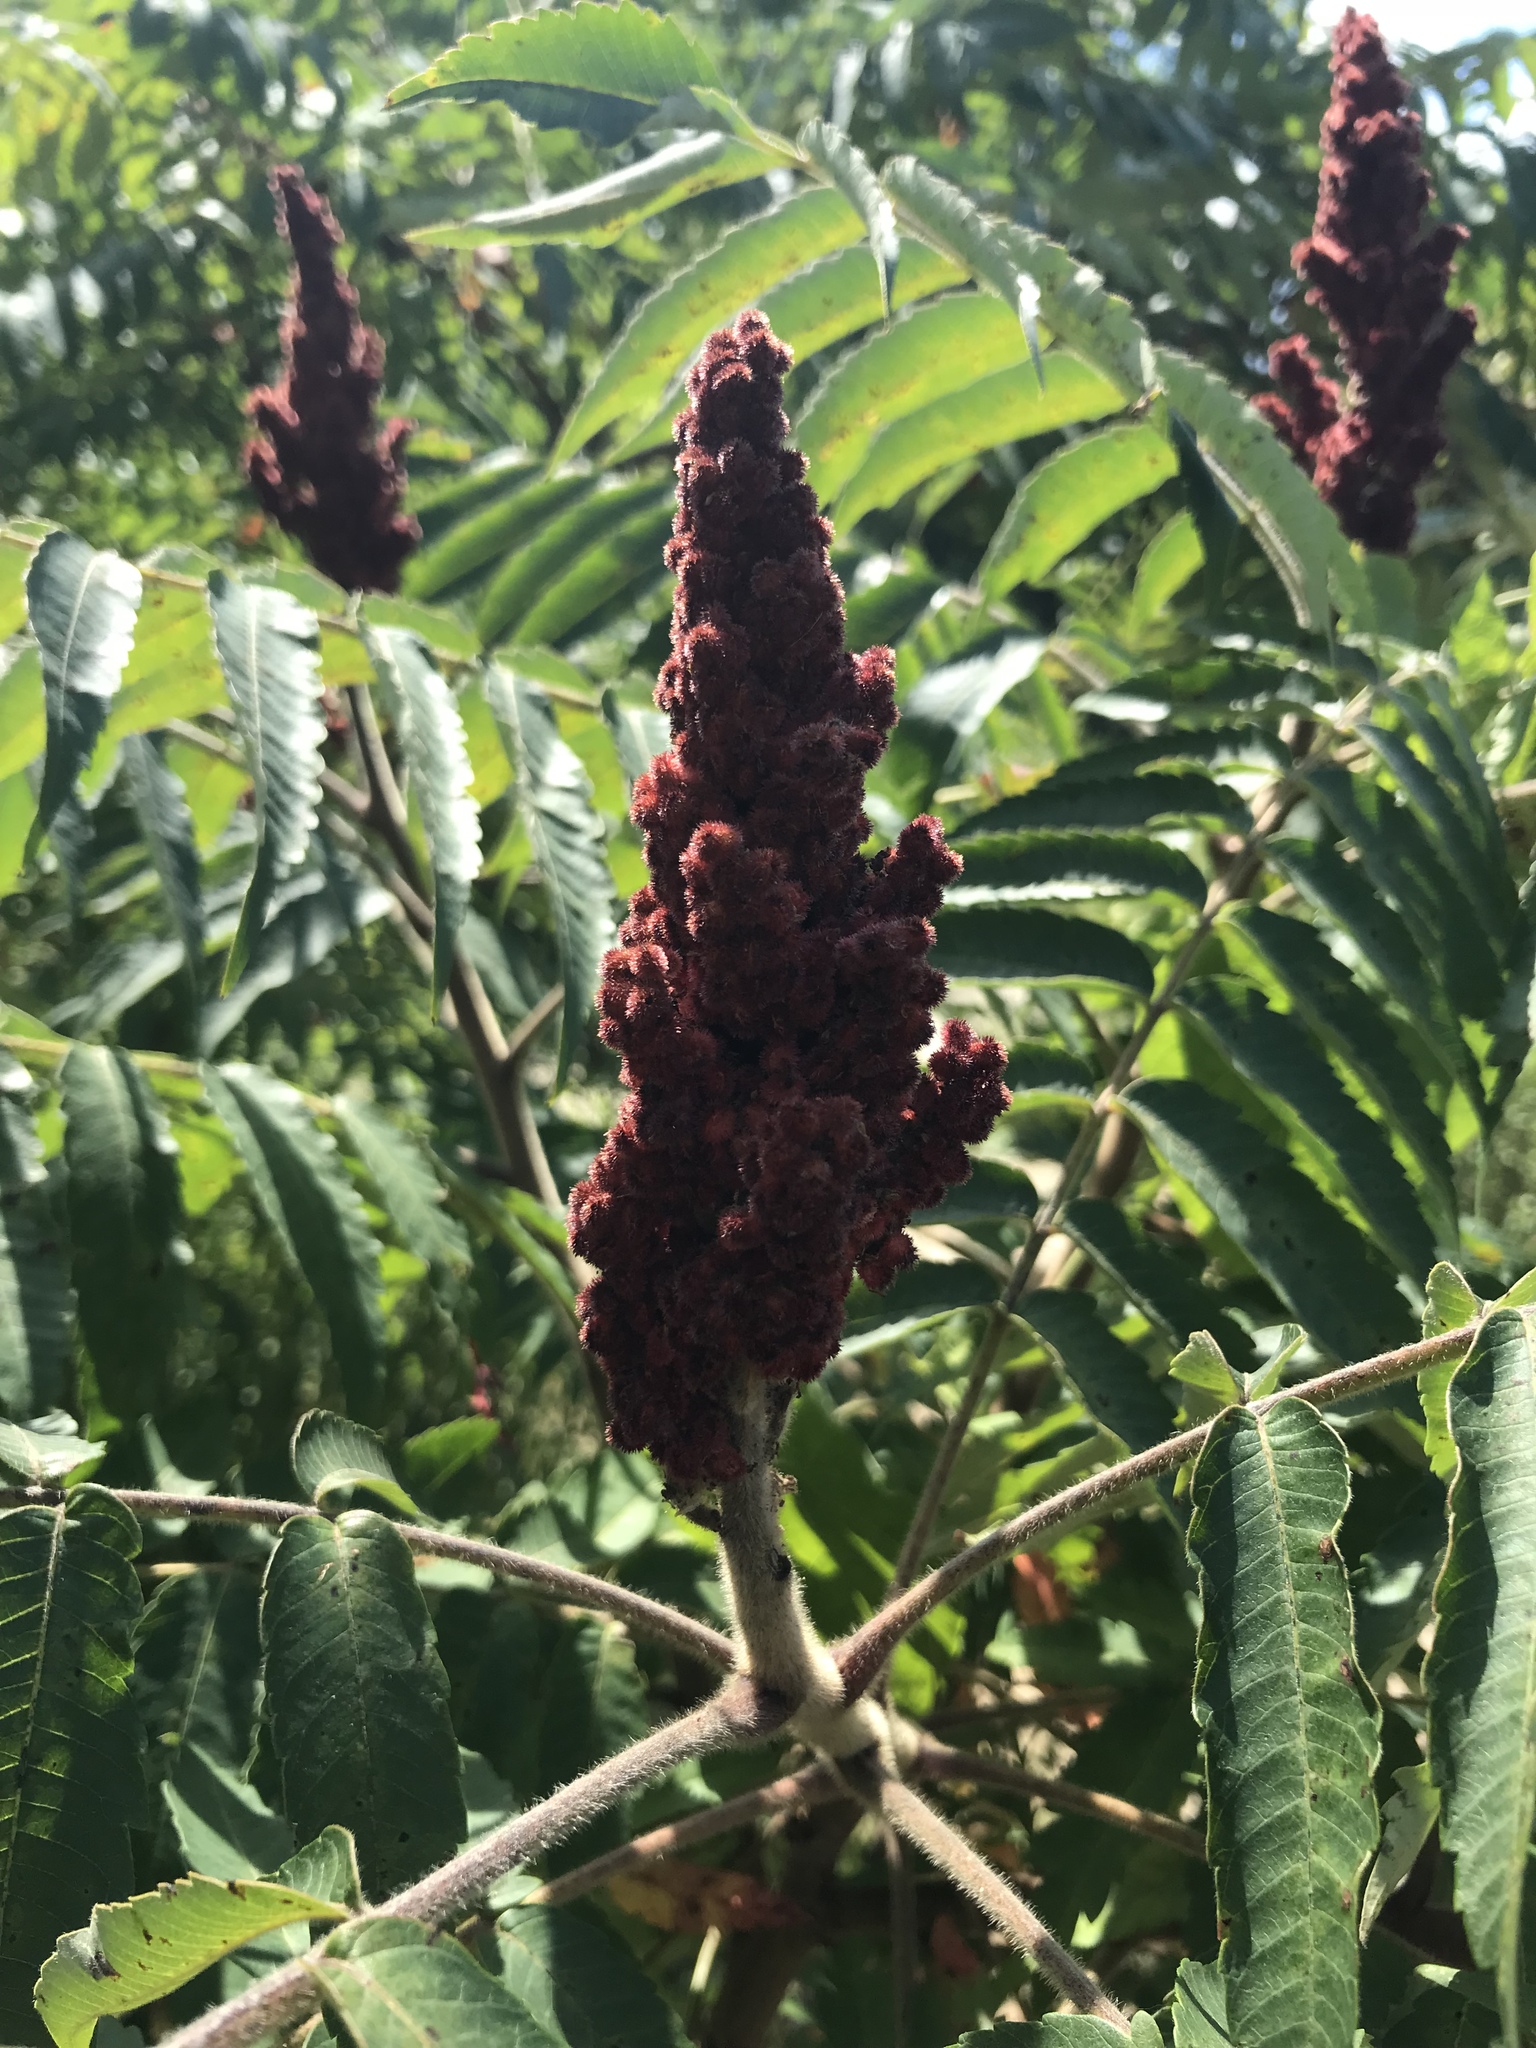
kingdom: Plantae
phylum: Tracheophyta
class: Magnoliopsida
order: Sapindales
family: Anacardiaceae
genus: Rhus
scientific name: Rhus typhina
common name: Staghorn sumac
